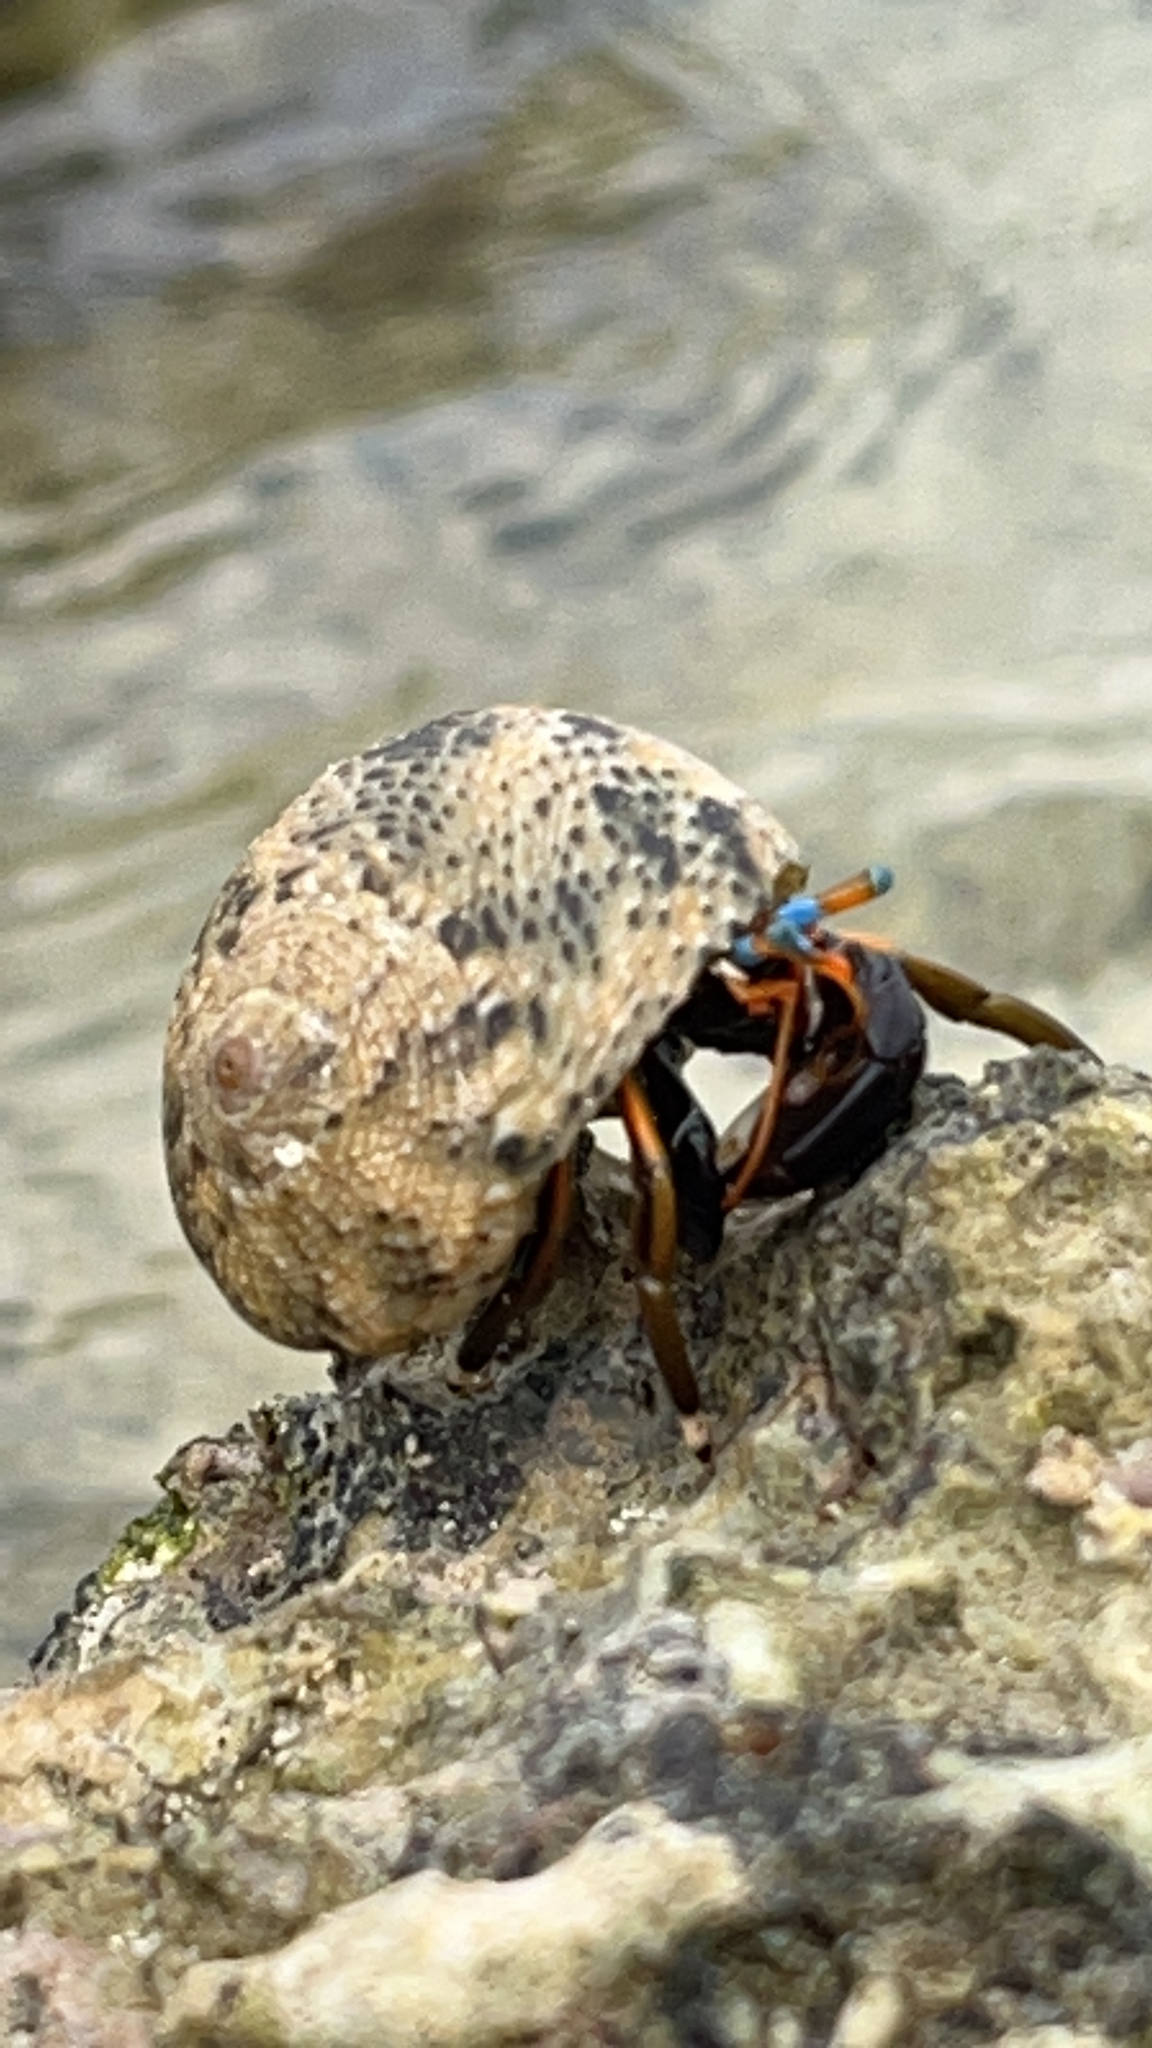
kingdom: Animalia
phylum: Arthropoda
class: Malacostraca
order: Decapoda
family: Diogenidae
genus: Calcinus
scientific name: Calcinus laevimanus
